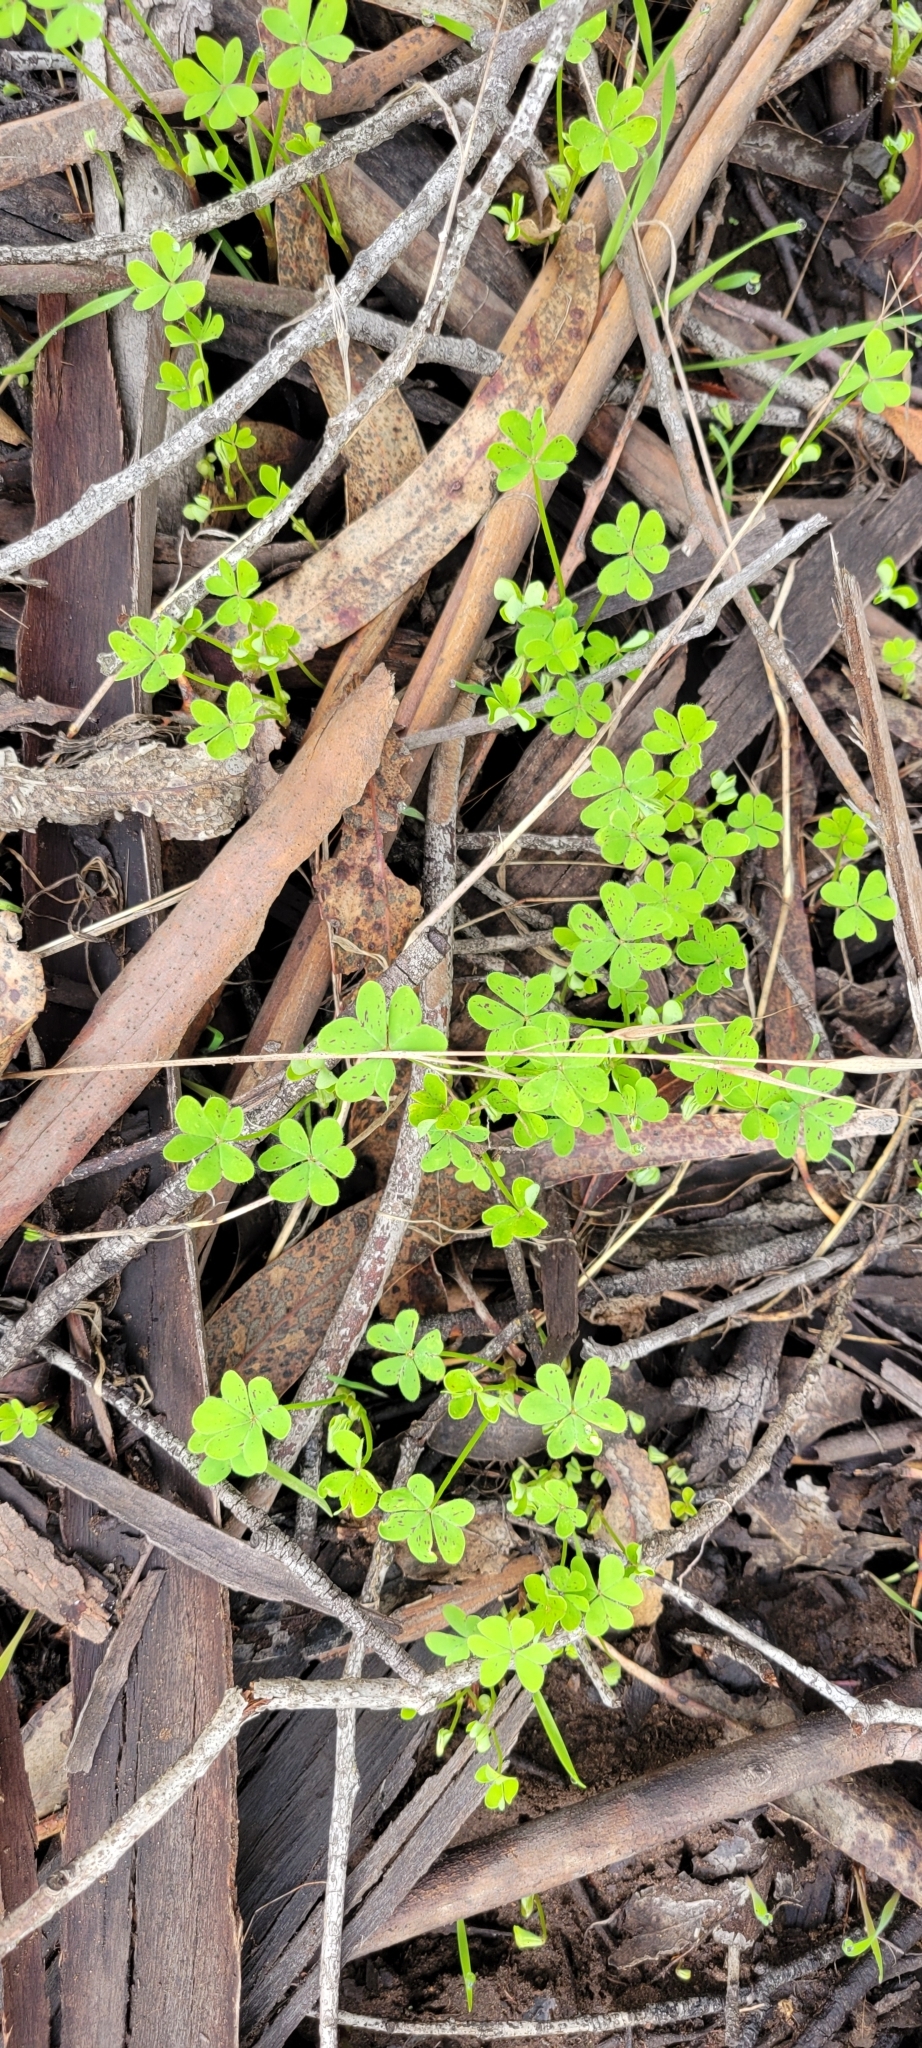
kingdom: Plantae
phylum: Tracheophyta
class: Magnoliopsida
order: Oxalidales
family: Oxalidaceae
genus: Oxalis
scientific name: Oxalis pes-caprae
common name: Bermuda-buttercup
